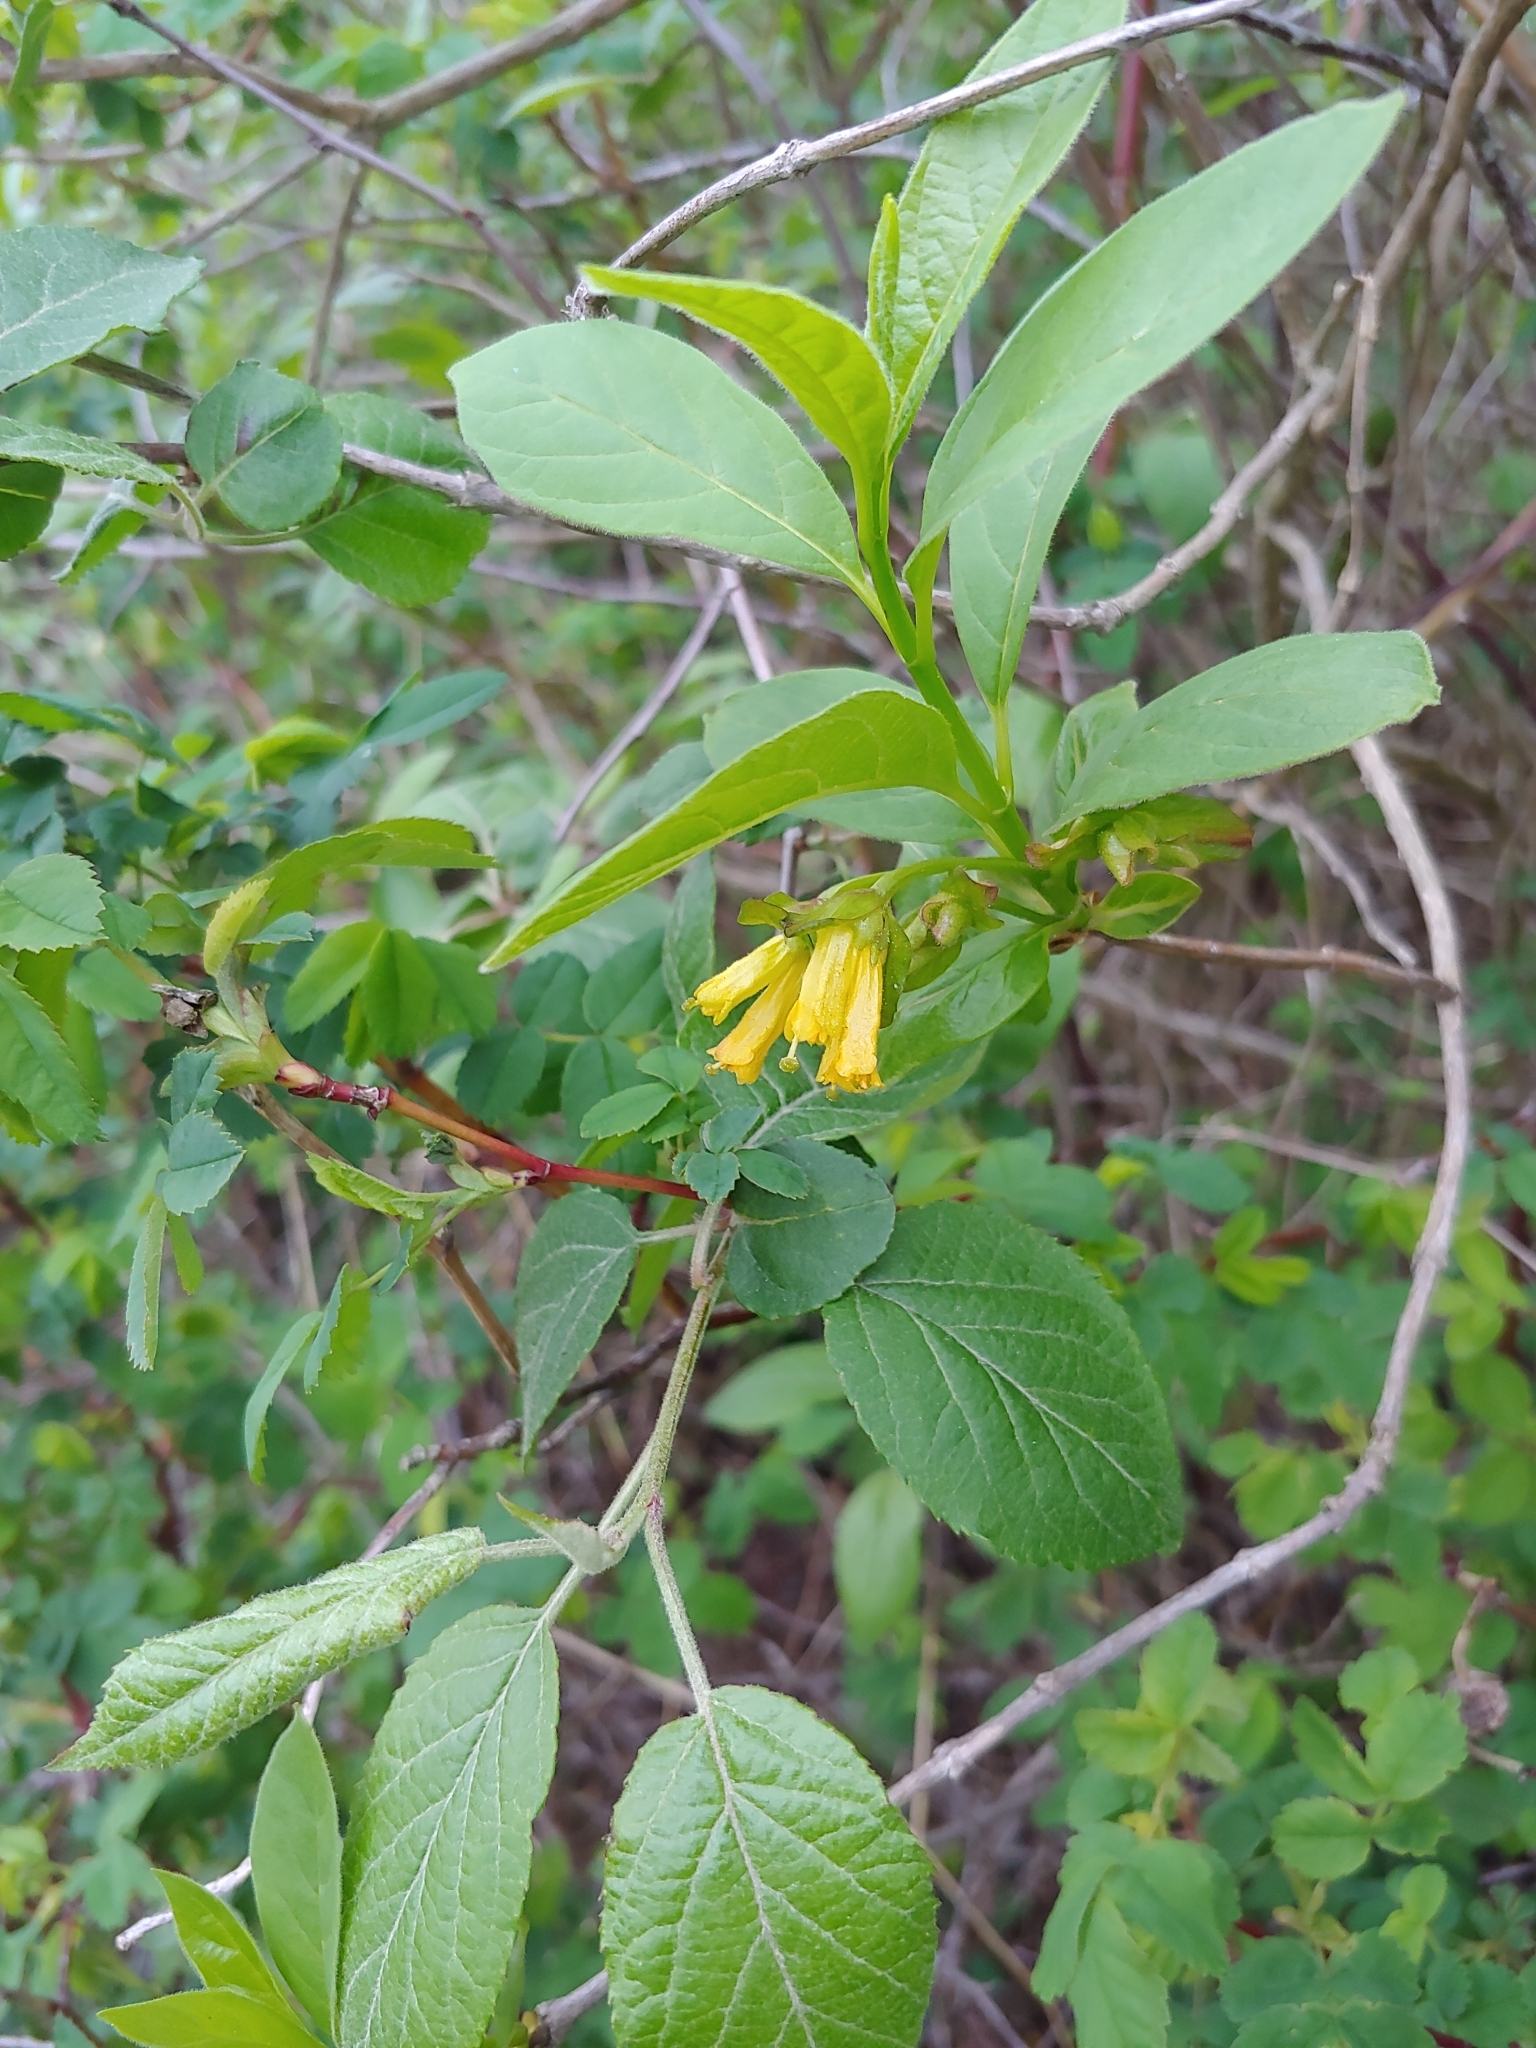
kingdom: Plantae
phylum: Tracheophyta
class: Magnoliopsida
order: Dipsacales
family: Caprifoliaceae
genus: Lonicera
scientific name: Lonicera involucrata
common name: Californian honeysuckle
